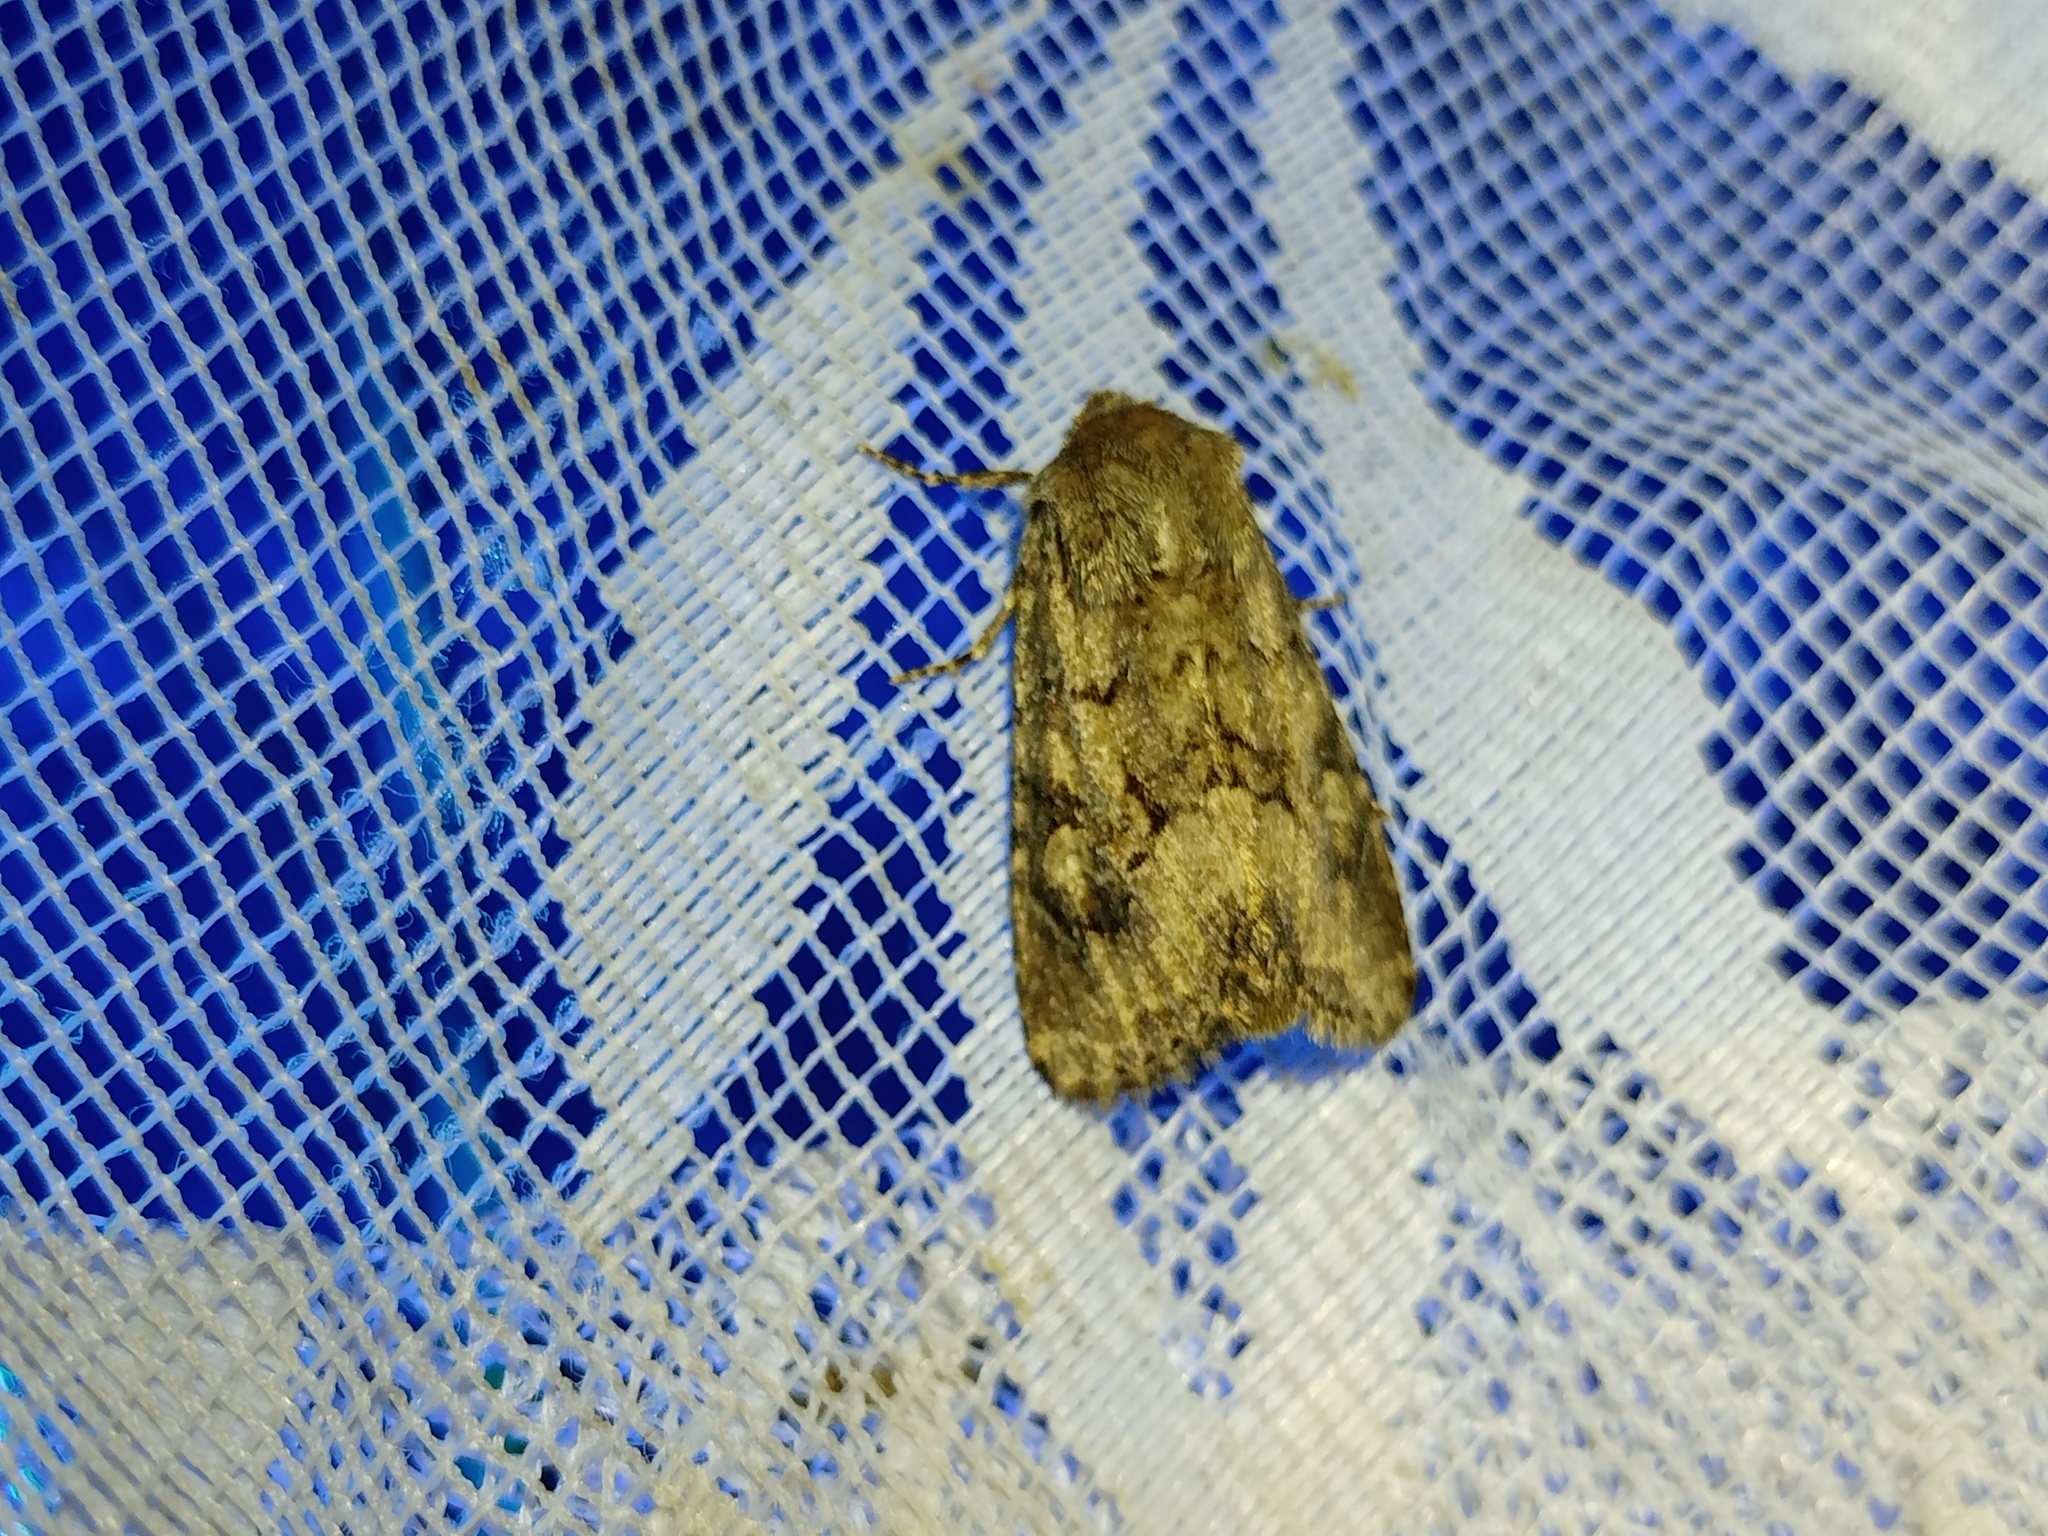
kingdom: Animalia
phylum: Arthropoda
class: Insecta
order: Lepidoptera
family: Noctuidae
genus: Luperina
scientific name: Luperina testacea
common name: Flounced rustic
